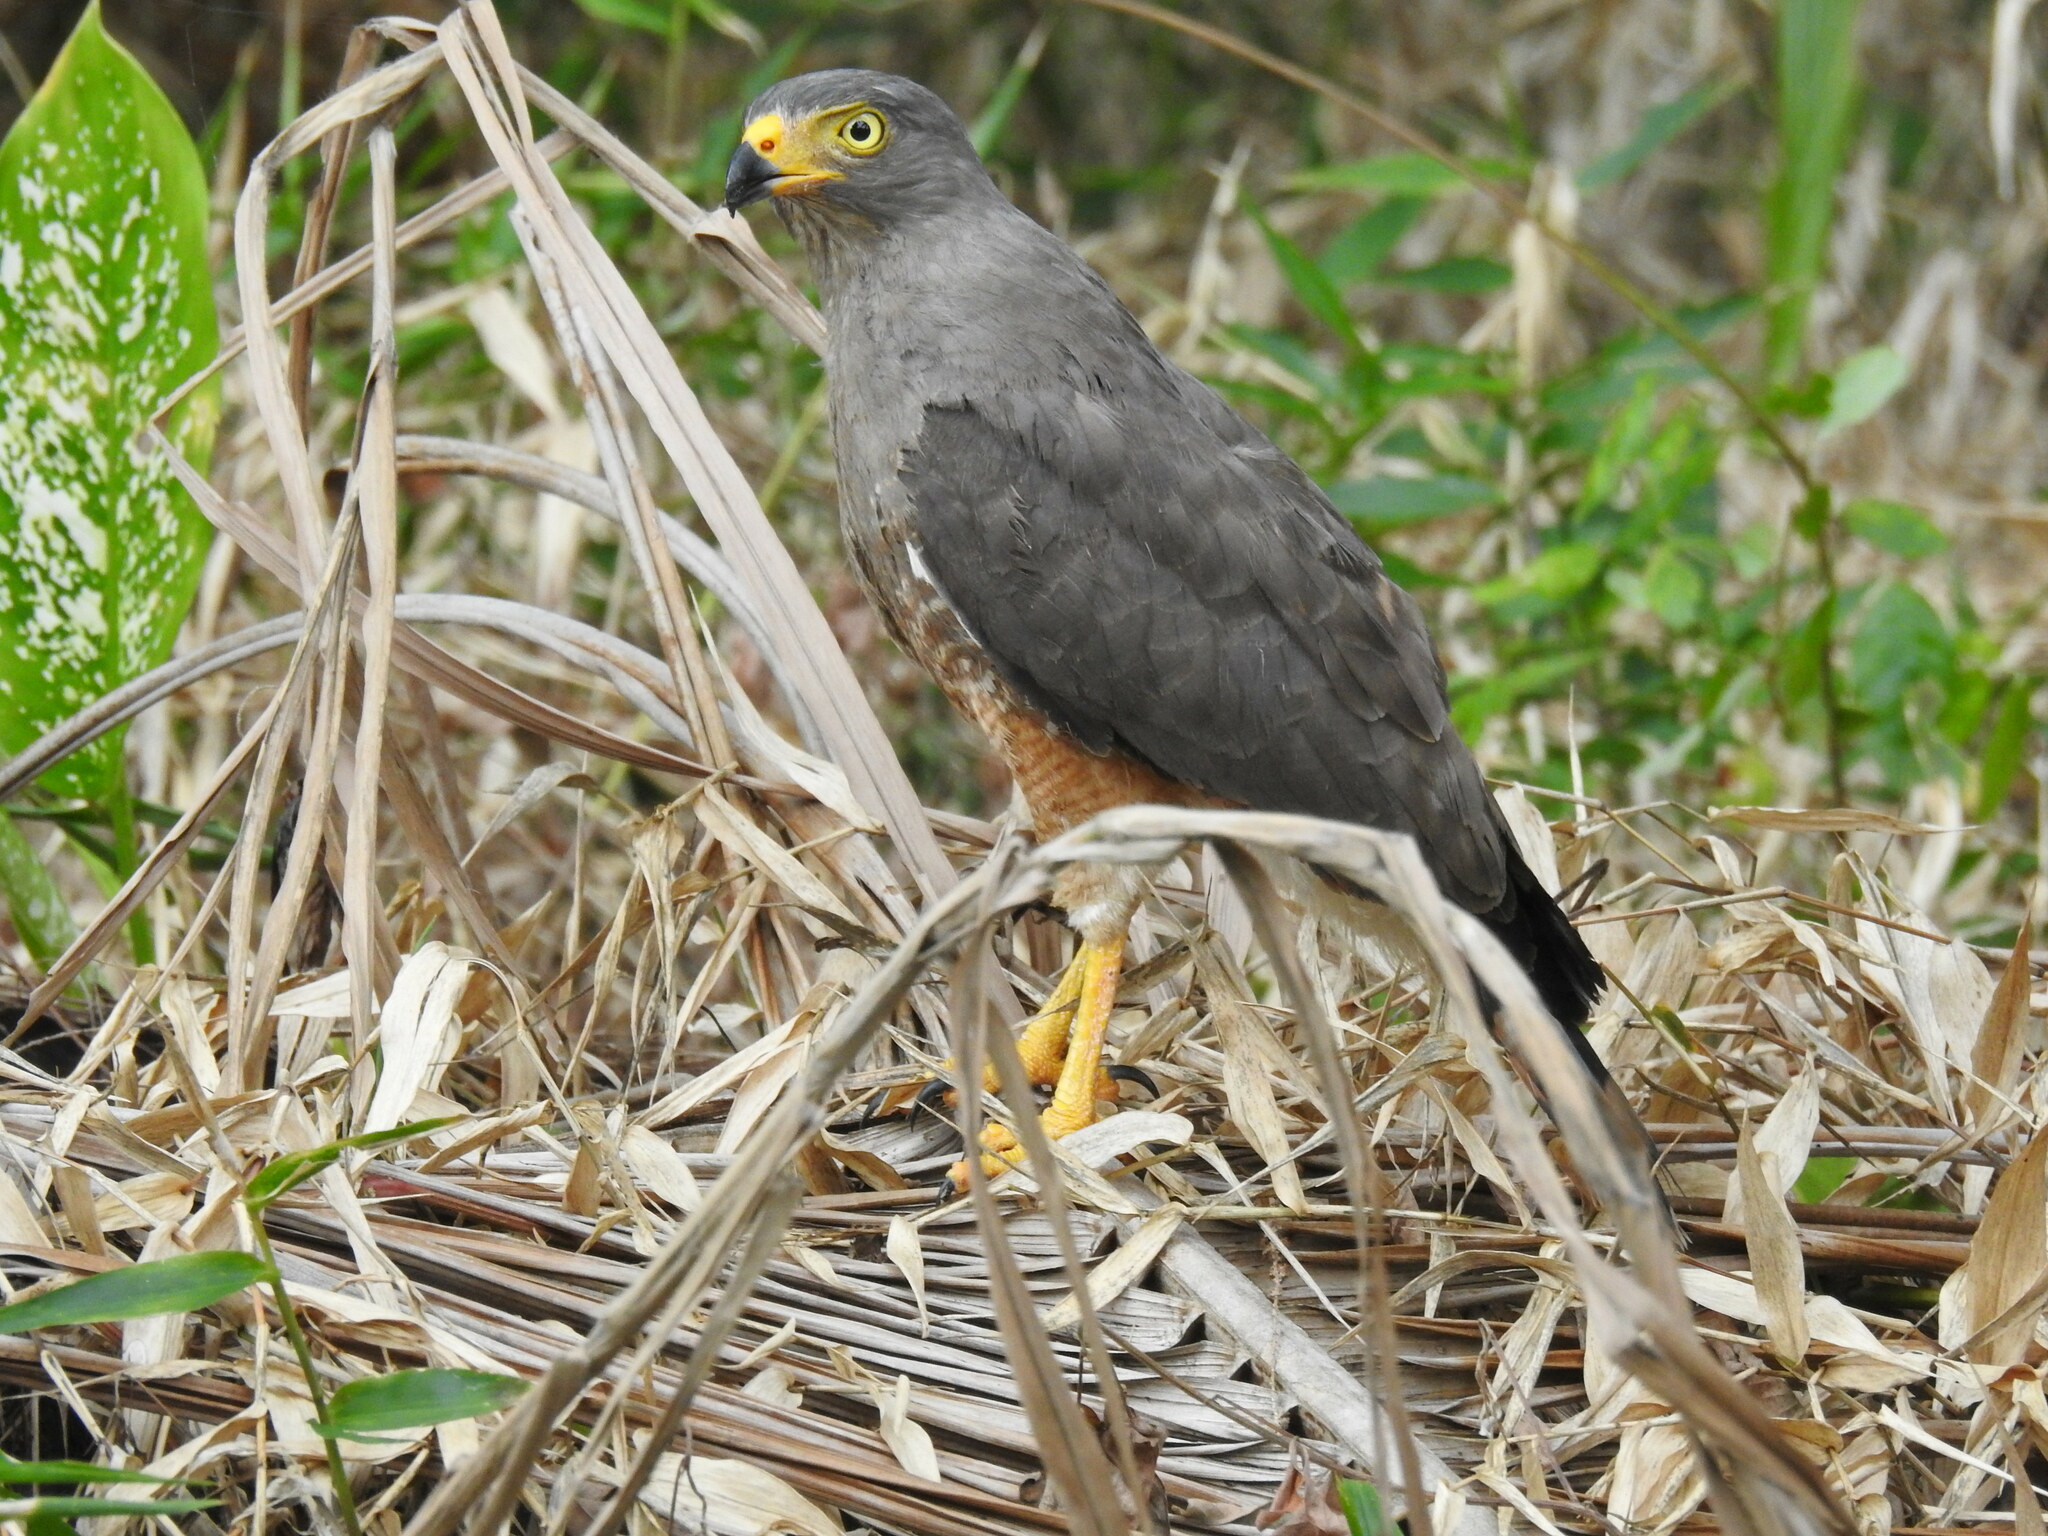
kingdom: Animalia
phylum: Chordata
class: Aves
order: Accipitriformes
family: Accipitridae
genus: Rupornis
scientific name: Rupornis magnirostris
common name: Roadside hawk
